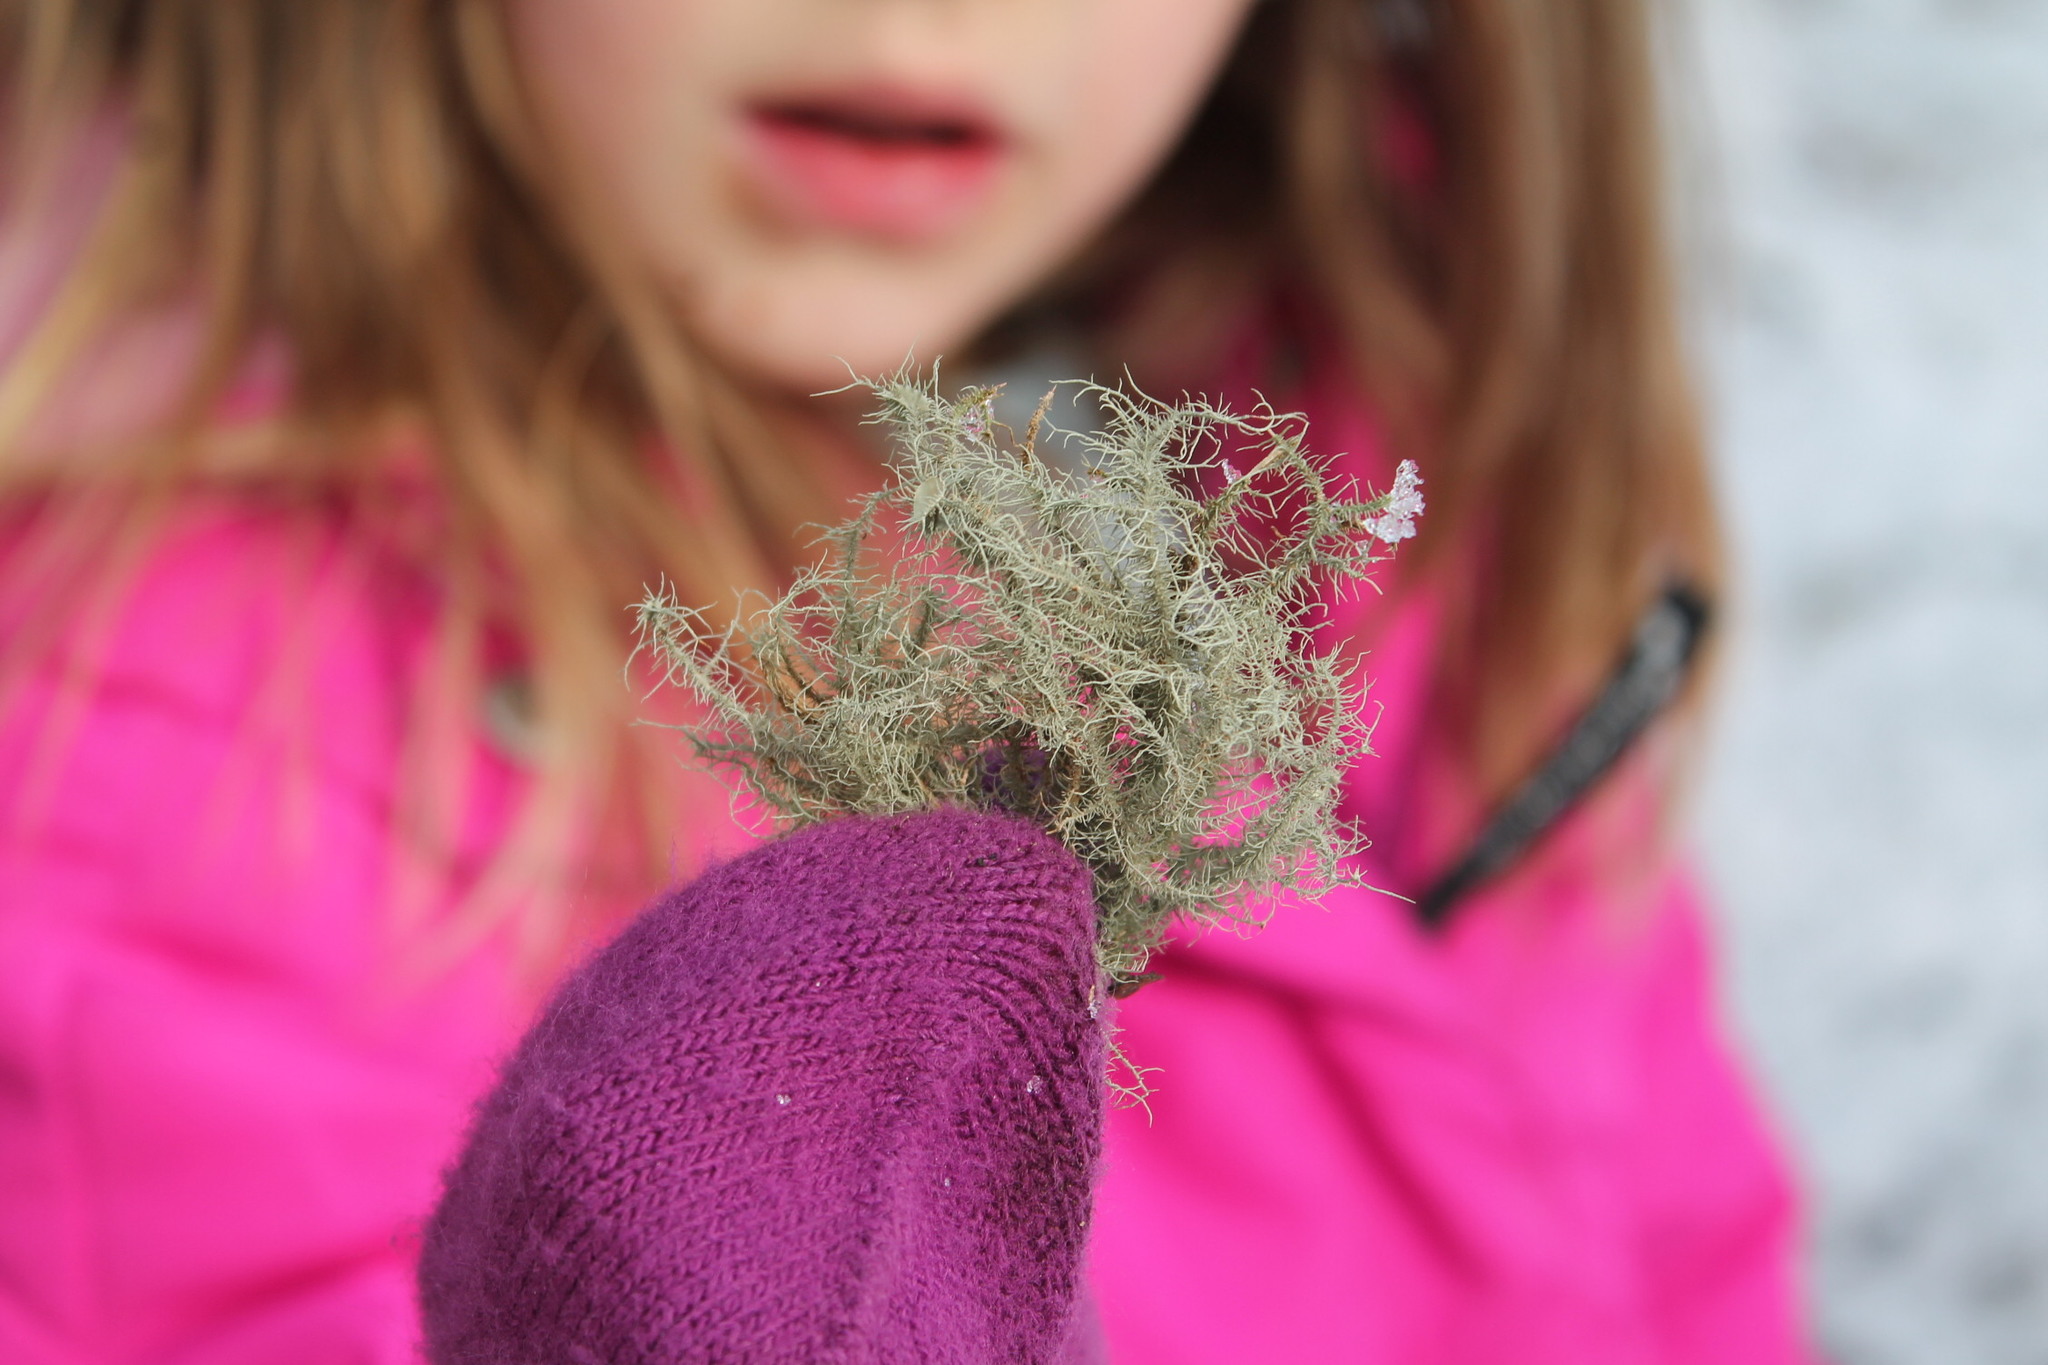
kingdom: Fungi
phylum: Ascomycota
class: Lecanoromycetes
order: Lecanorales
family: Parmeliaceae
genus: Usnea
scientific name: Usnea strigosa
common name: Bushy beard lichen
